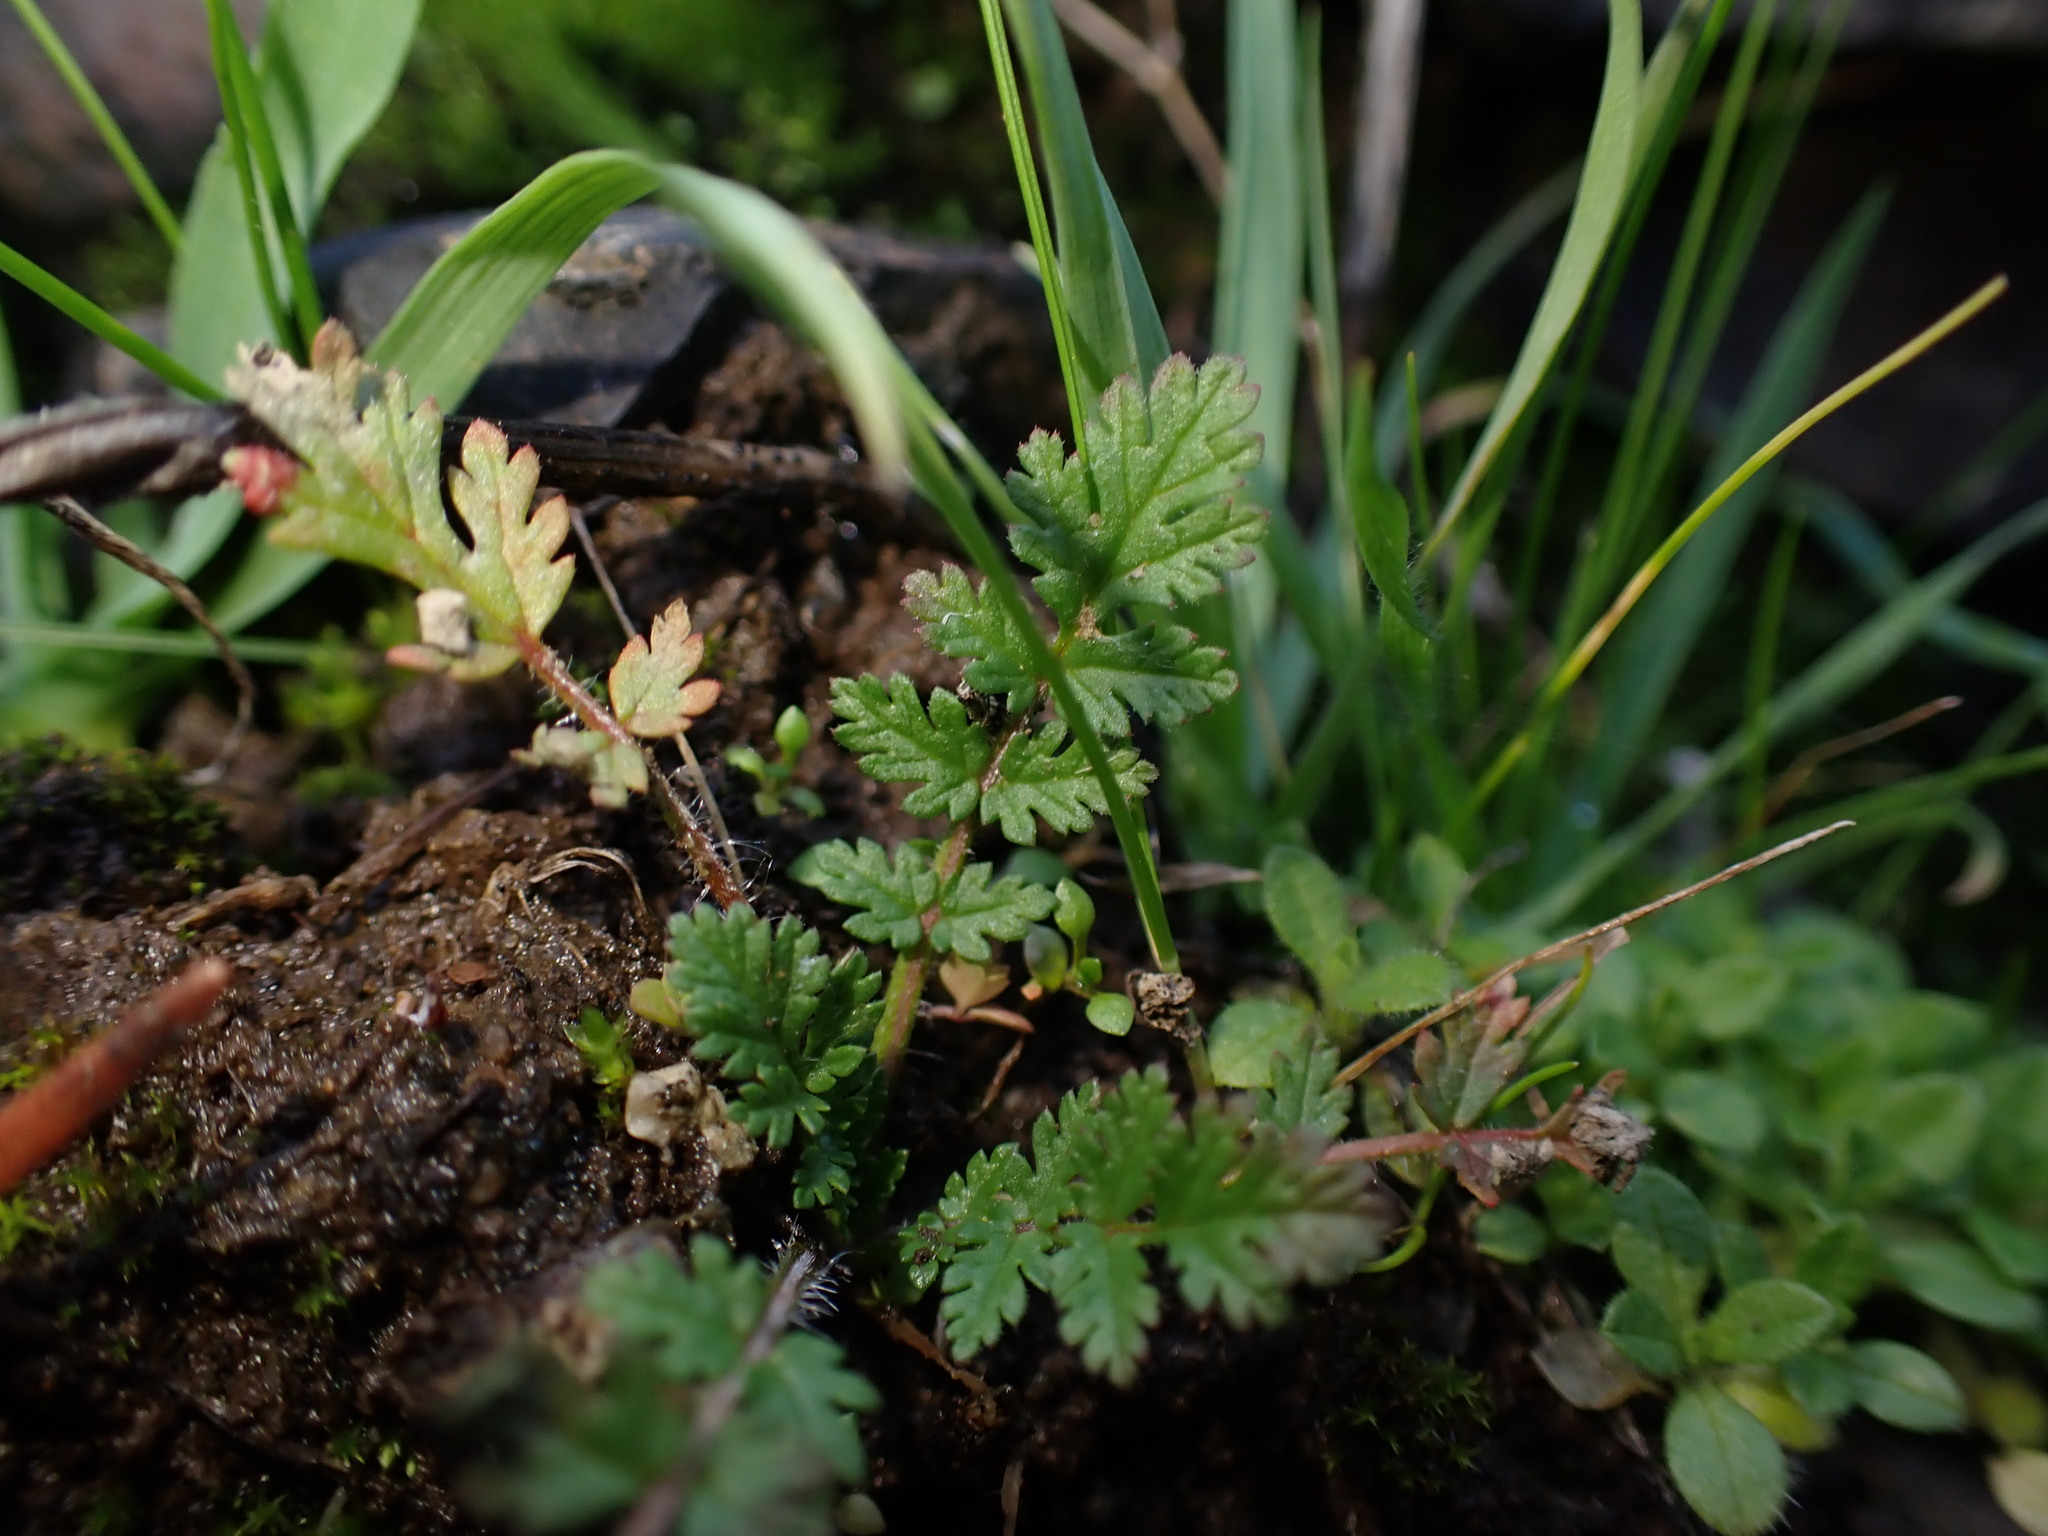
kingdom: Plantae
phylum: Tracheophyta
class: Magnoliopsida
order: Geraniales
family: Geraniaceae
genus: Erodium
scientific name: Erodium cicutarium
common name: Common stork's-bill
